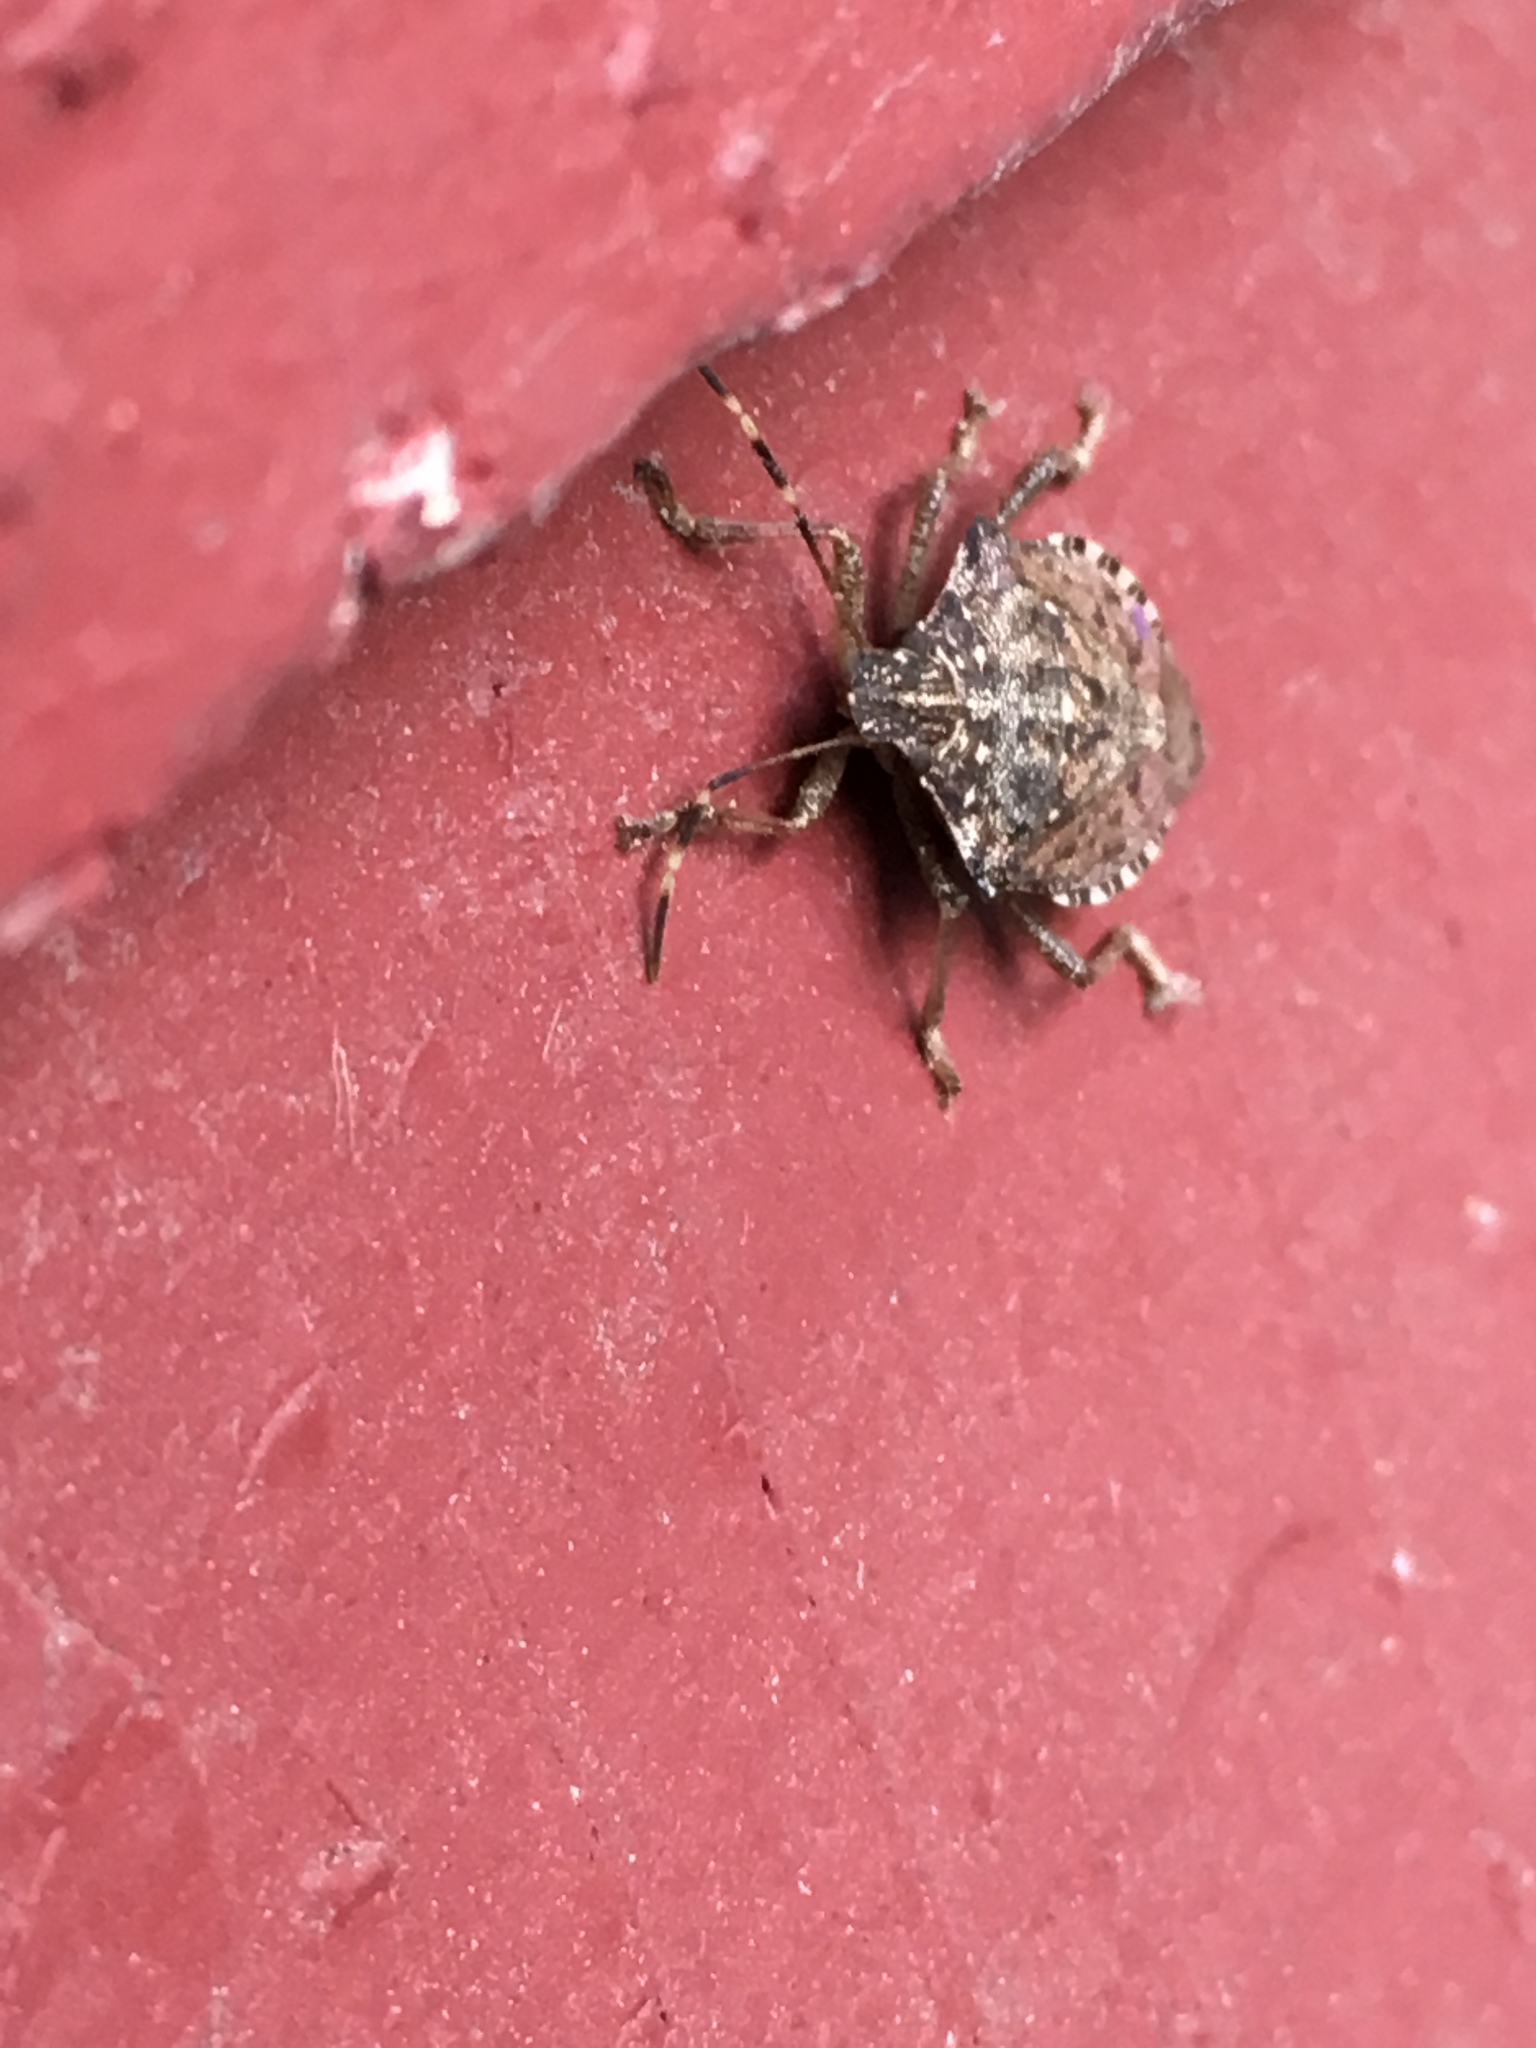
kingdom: Animalia
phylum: Arthropoda
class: Insecta
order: Hemiptera
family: Pentatomidae
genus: Halyomorpha
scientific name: Halyomorpha halys
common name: Brown marmorated stink bug
